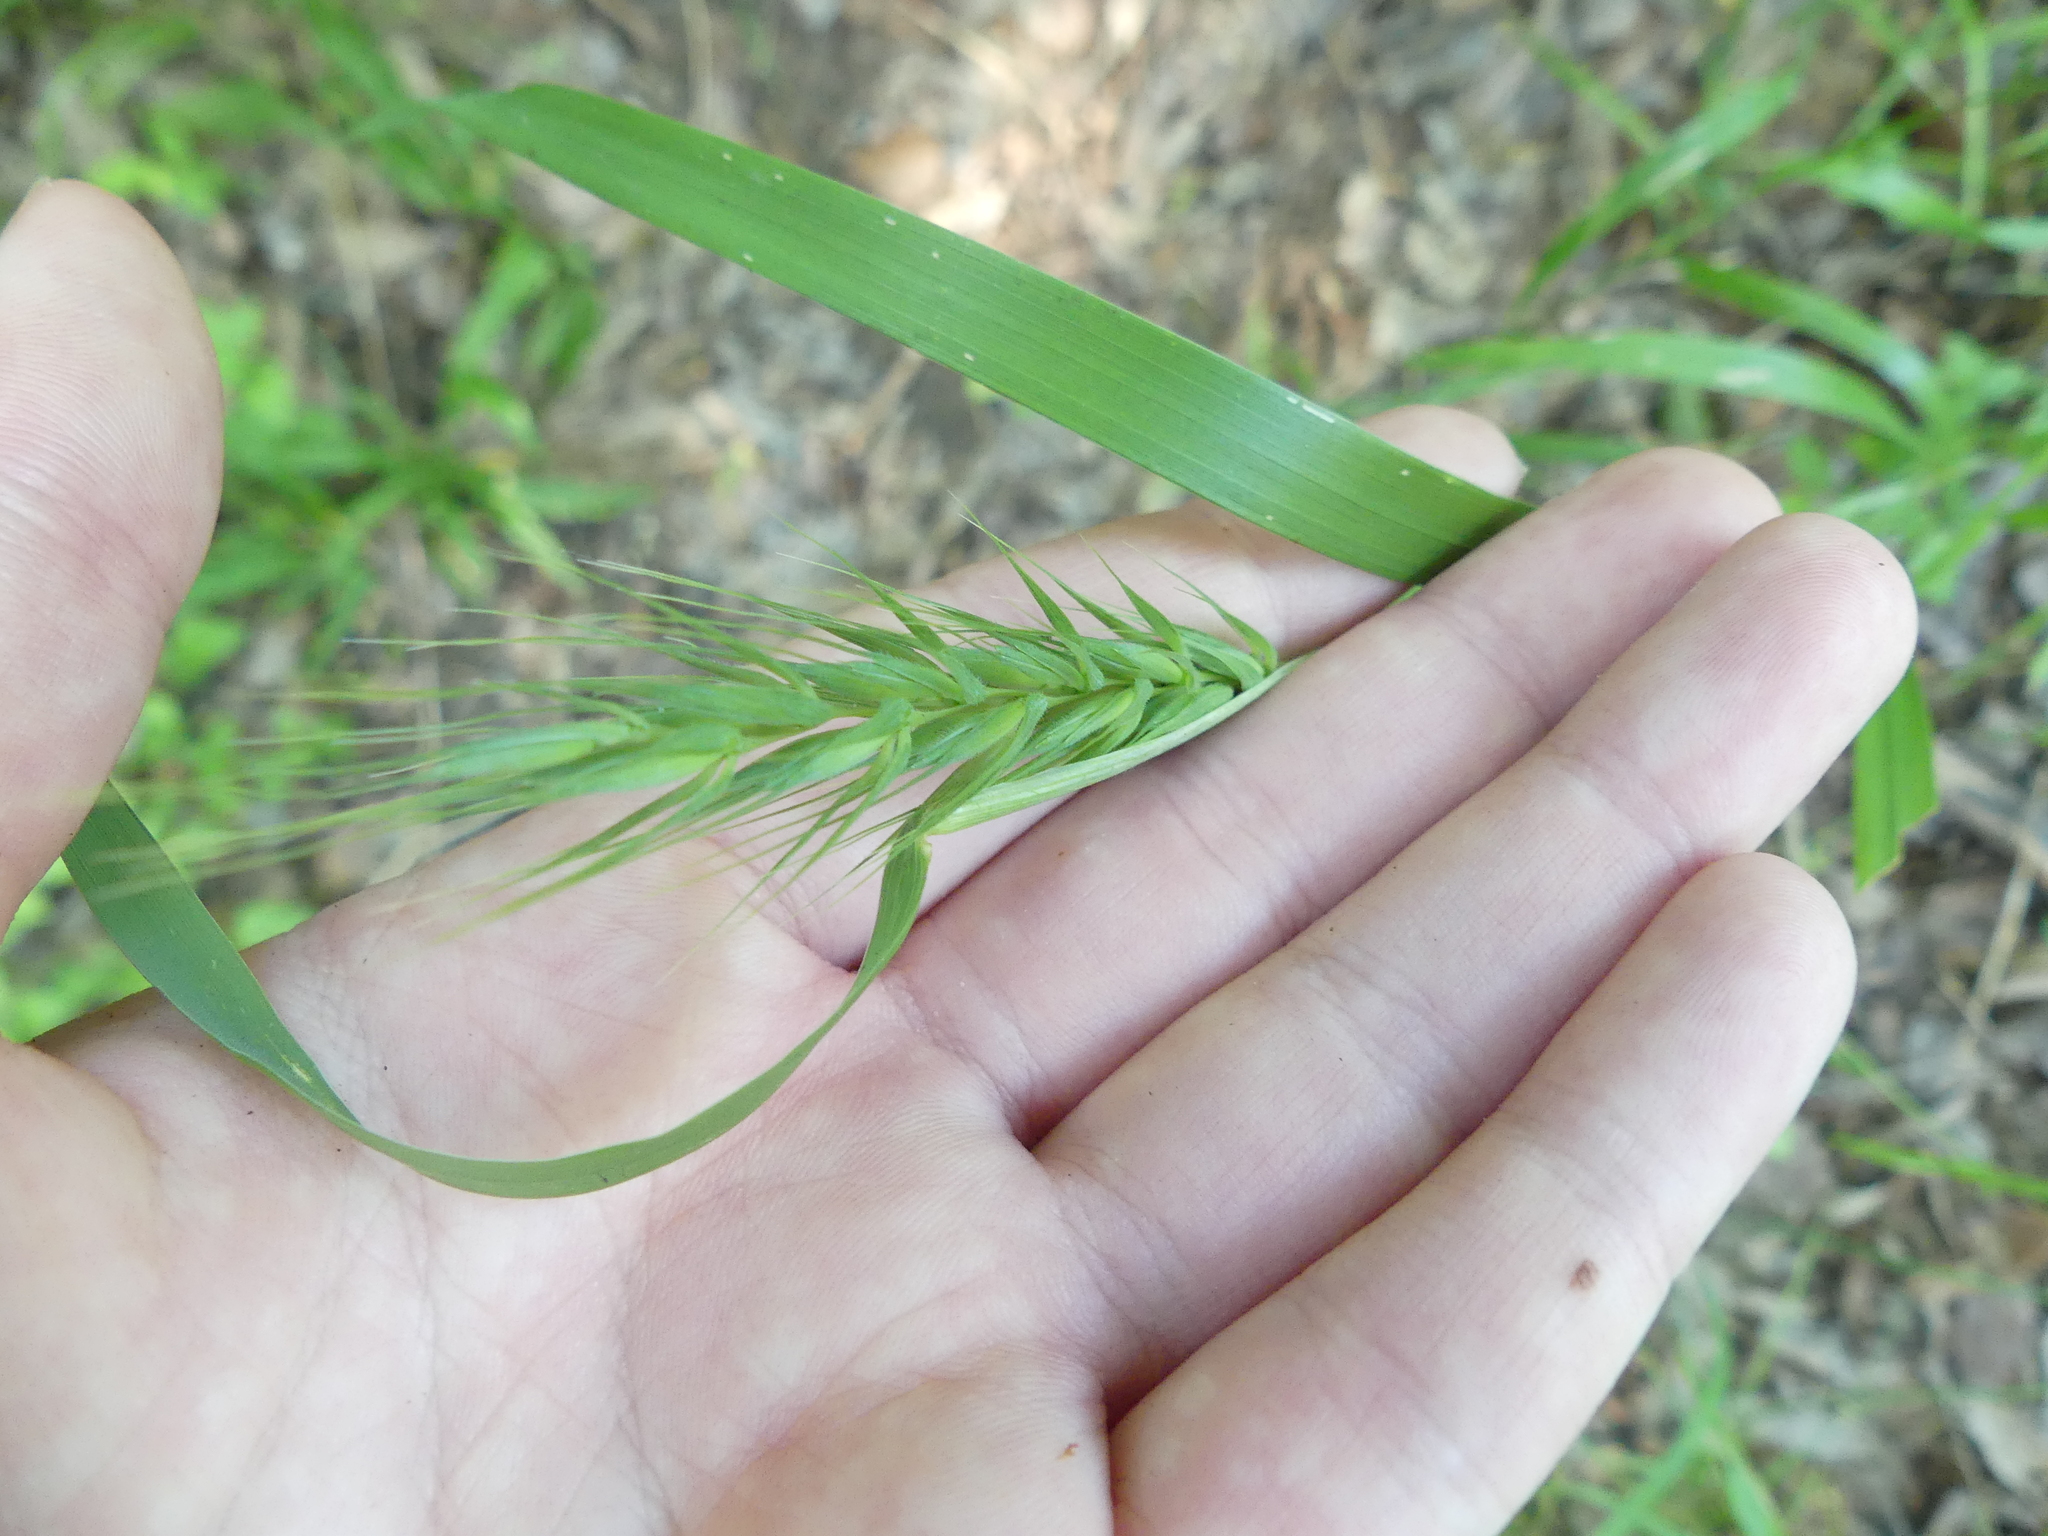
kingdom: Plantae
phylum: Tracheophyta
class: Liliopsida
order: Poales
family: Poaceae
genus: Elymus
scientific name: Elymus virginicus
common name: Common eastern wildrye
